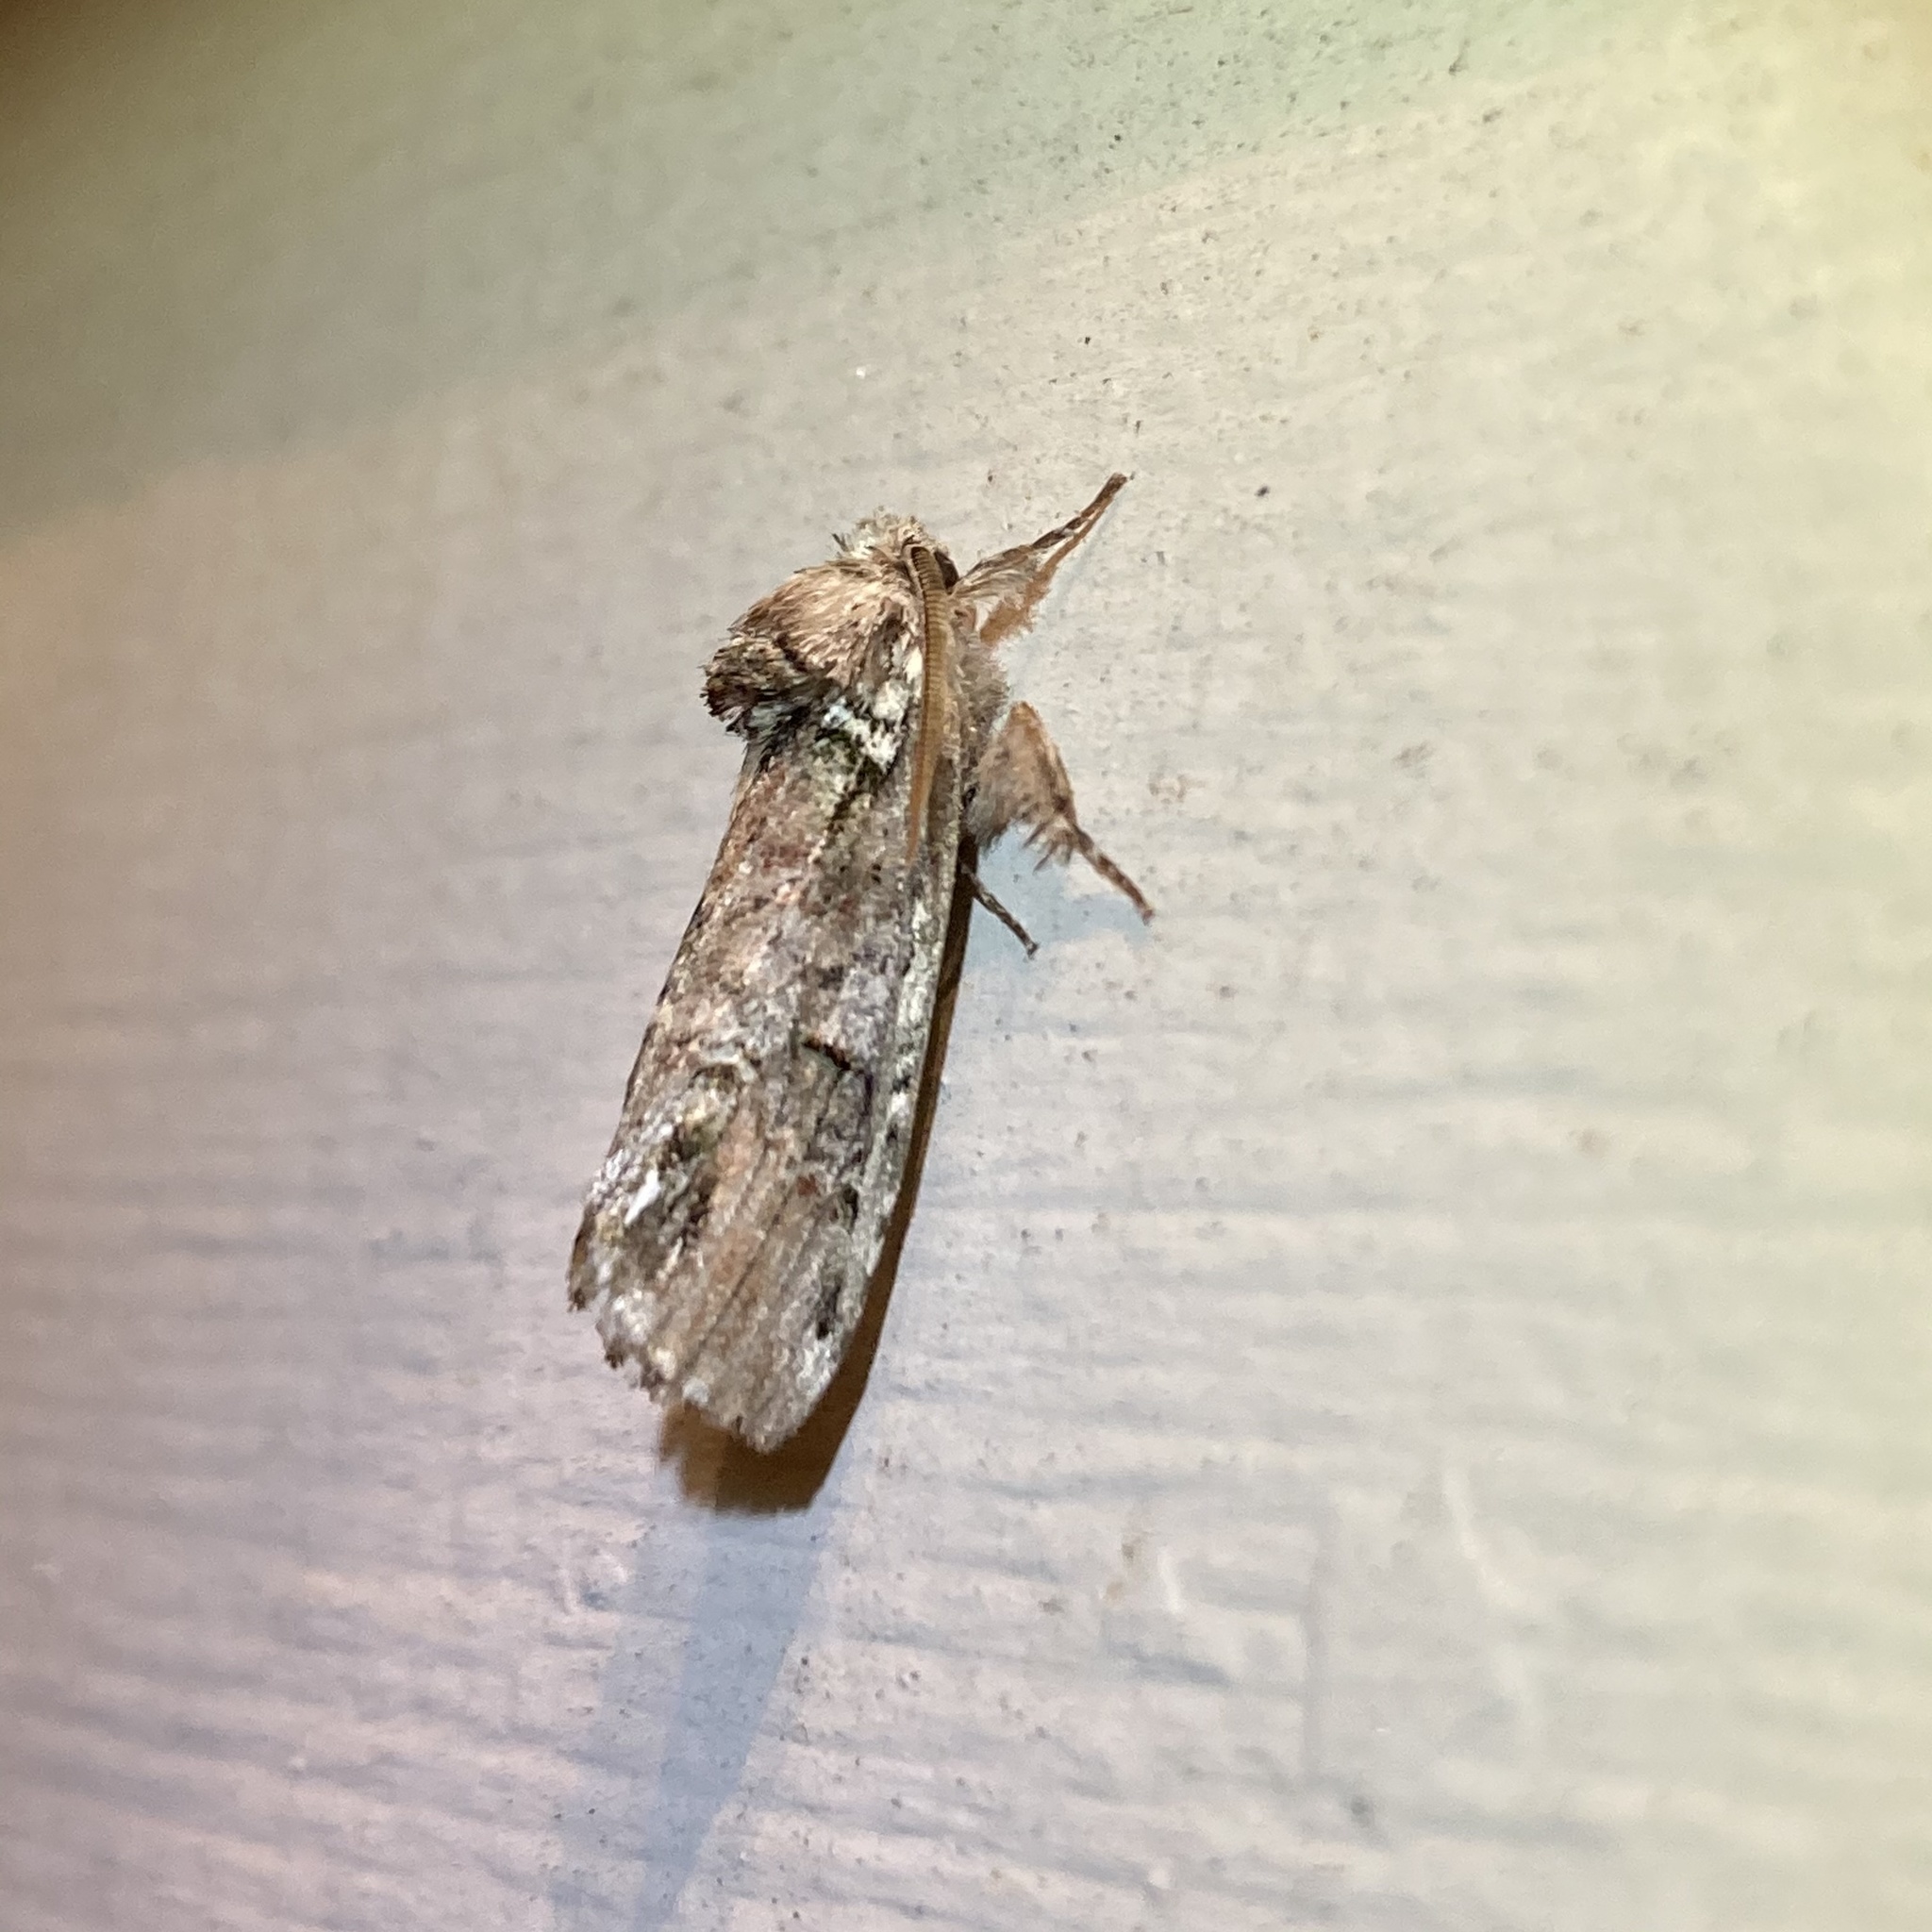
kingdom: Animalia
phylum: Arthropoda
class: Insecta
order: Lepidoptera
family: Notodontidae
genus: Schizura
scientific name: Schizura
